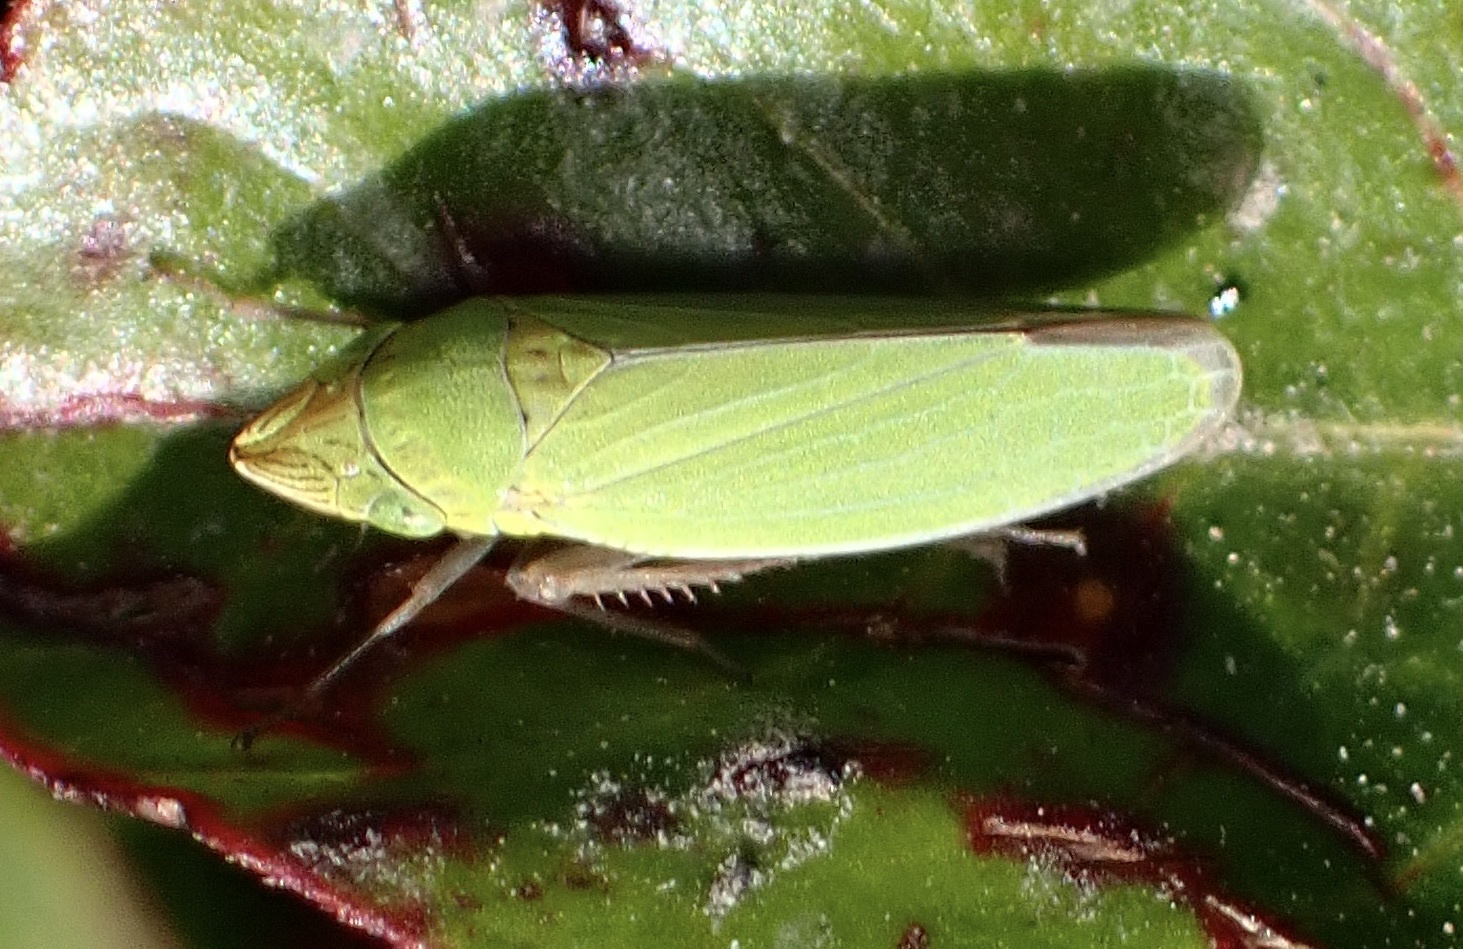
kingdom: Animalia
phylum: Arthropoda
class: Insecta
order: Hemiptera
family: Cicadellidae
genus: Draeculacephala
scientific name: Draeculacephala minerva
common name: Grass sharphooter
